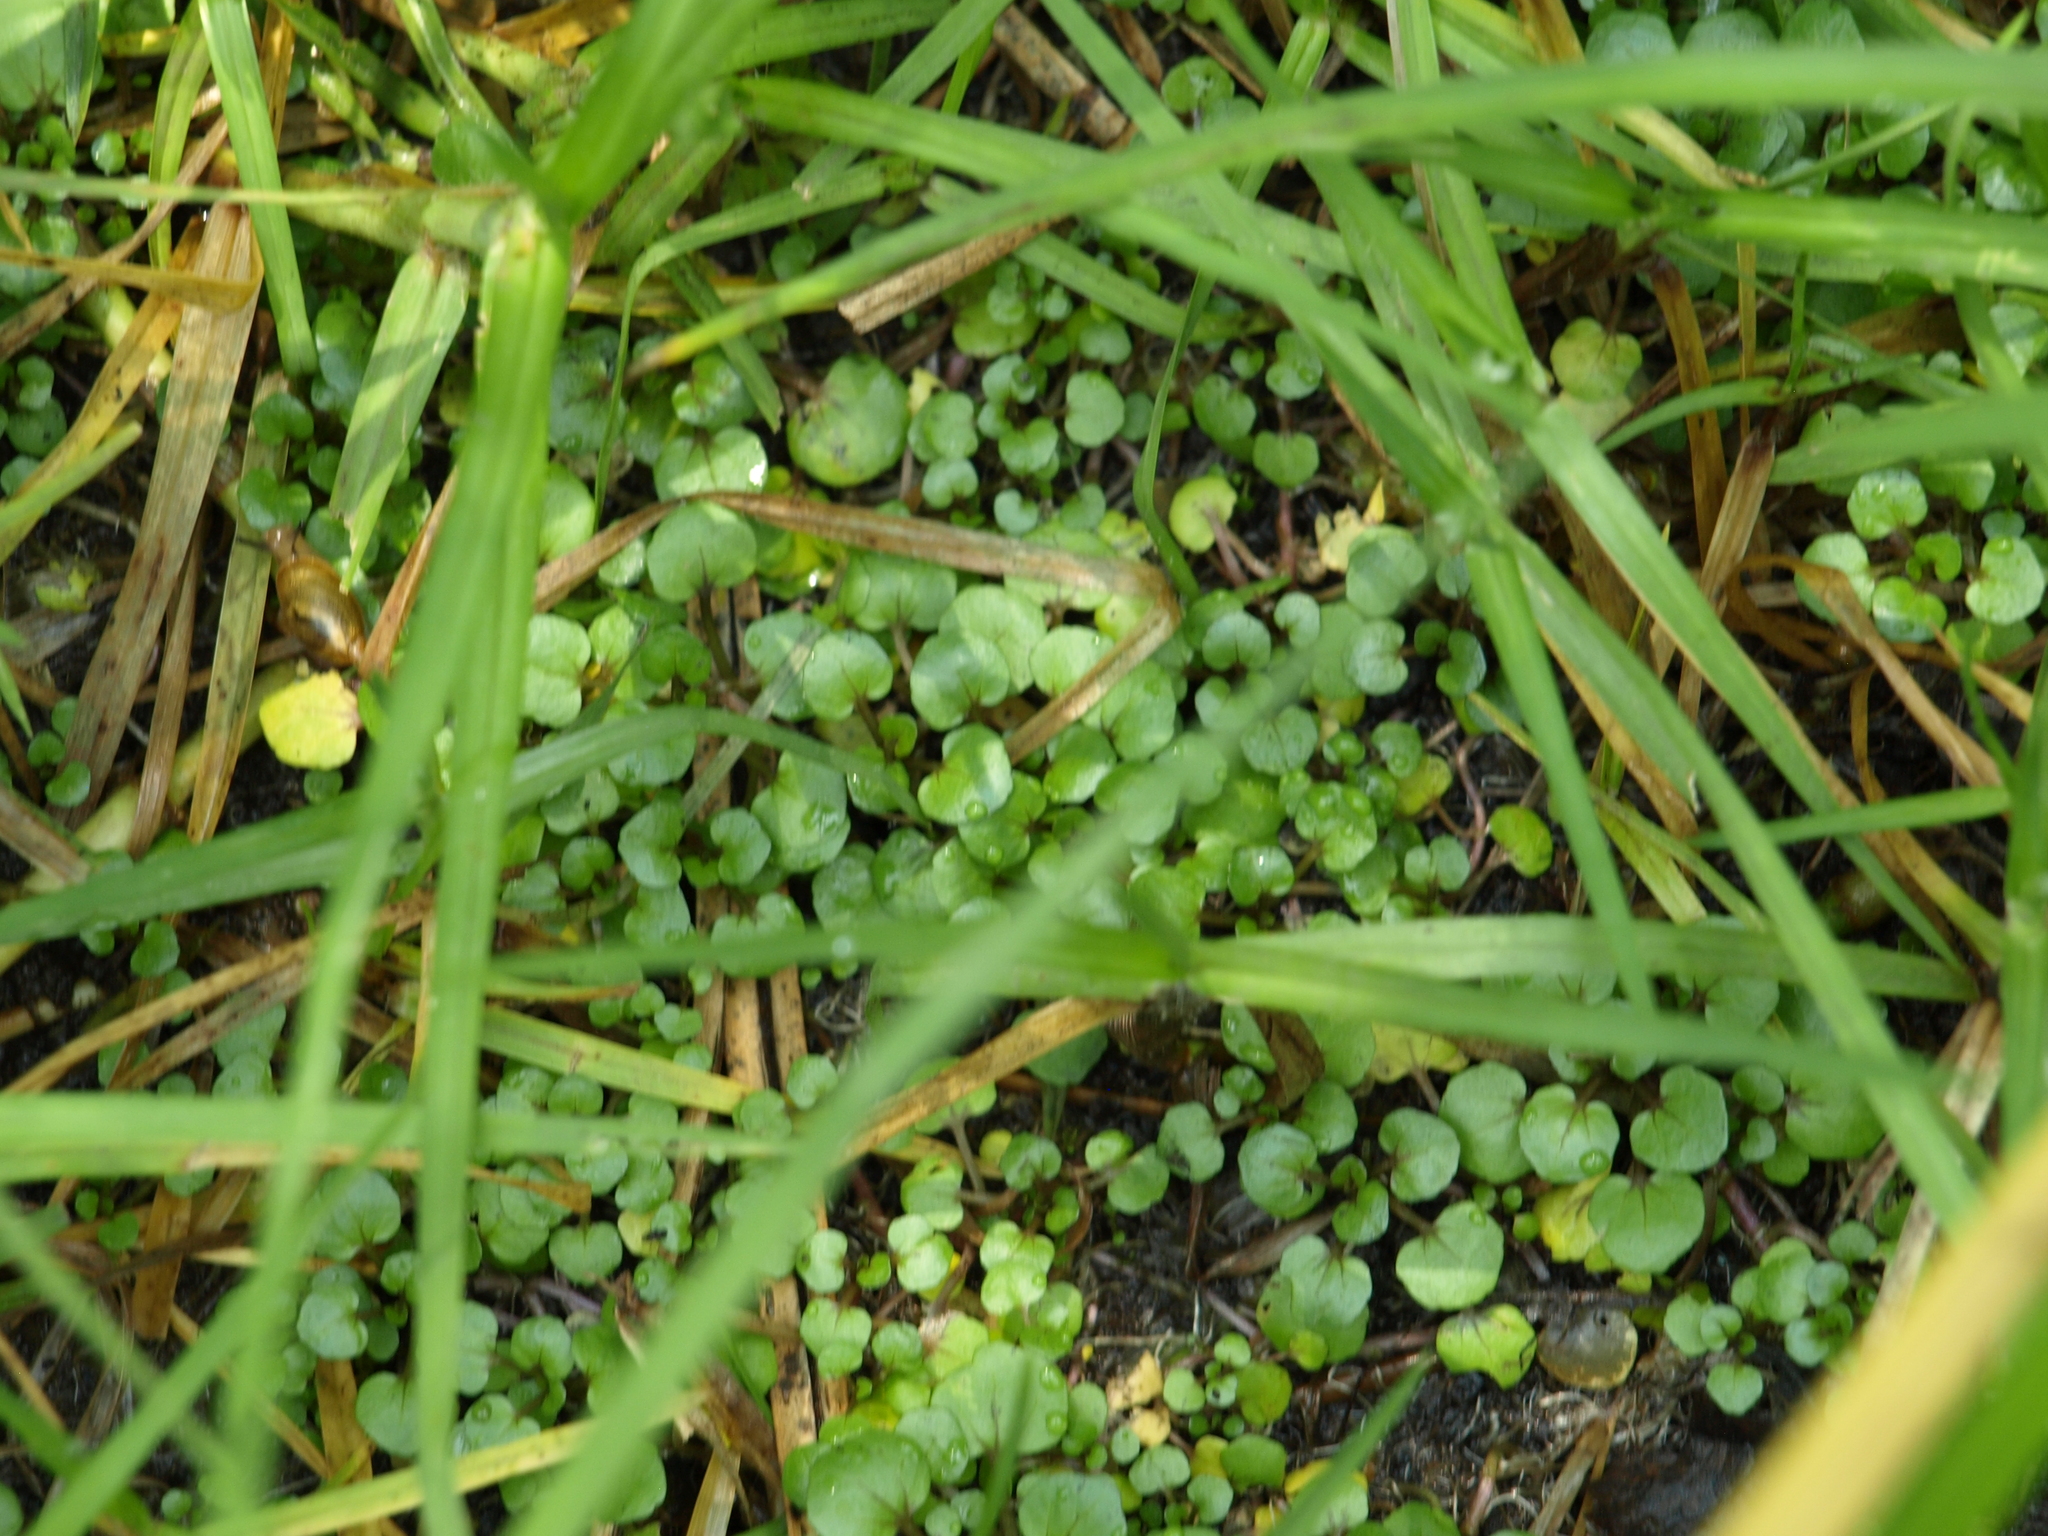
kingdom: Plantae
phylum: Tracheophyta
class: Magnoliopsida
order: Brassicales
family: Brassicaceae
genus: Nasturtium
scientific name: Nasturtium officinale
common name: Watercress
